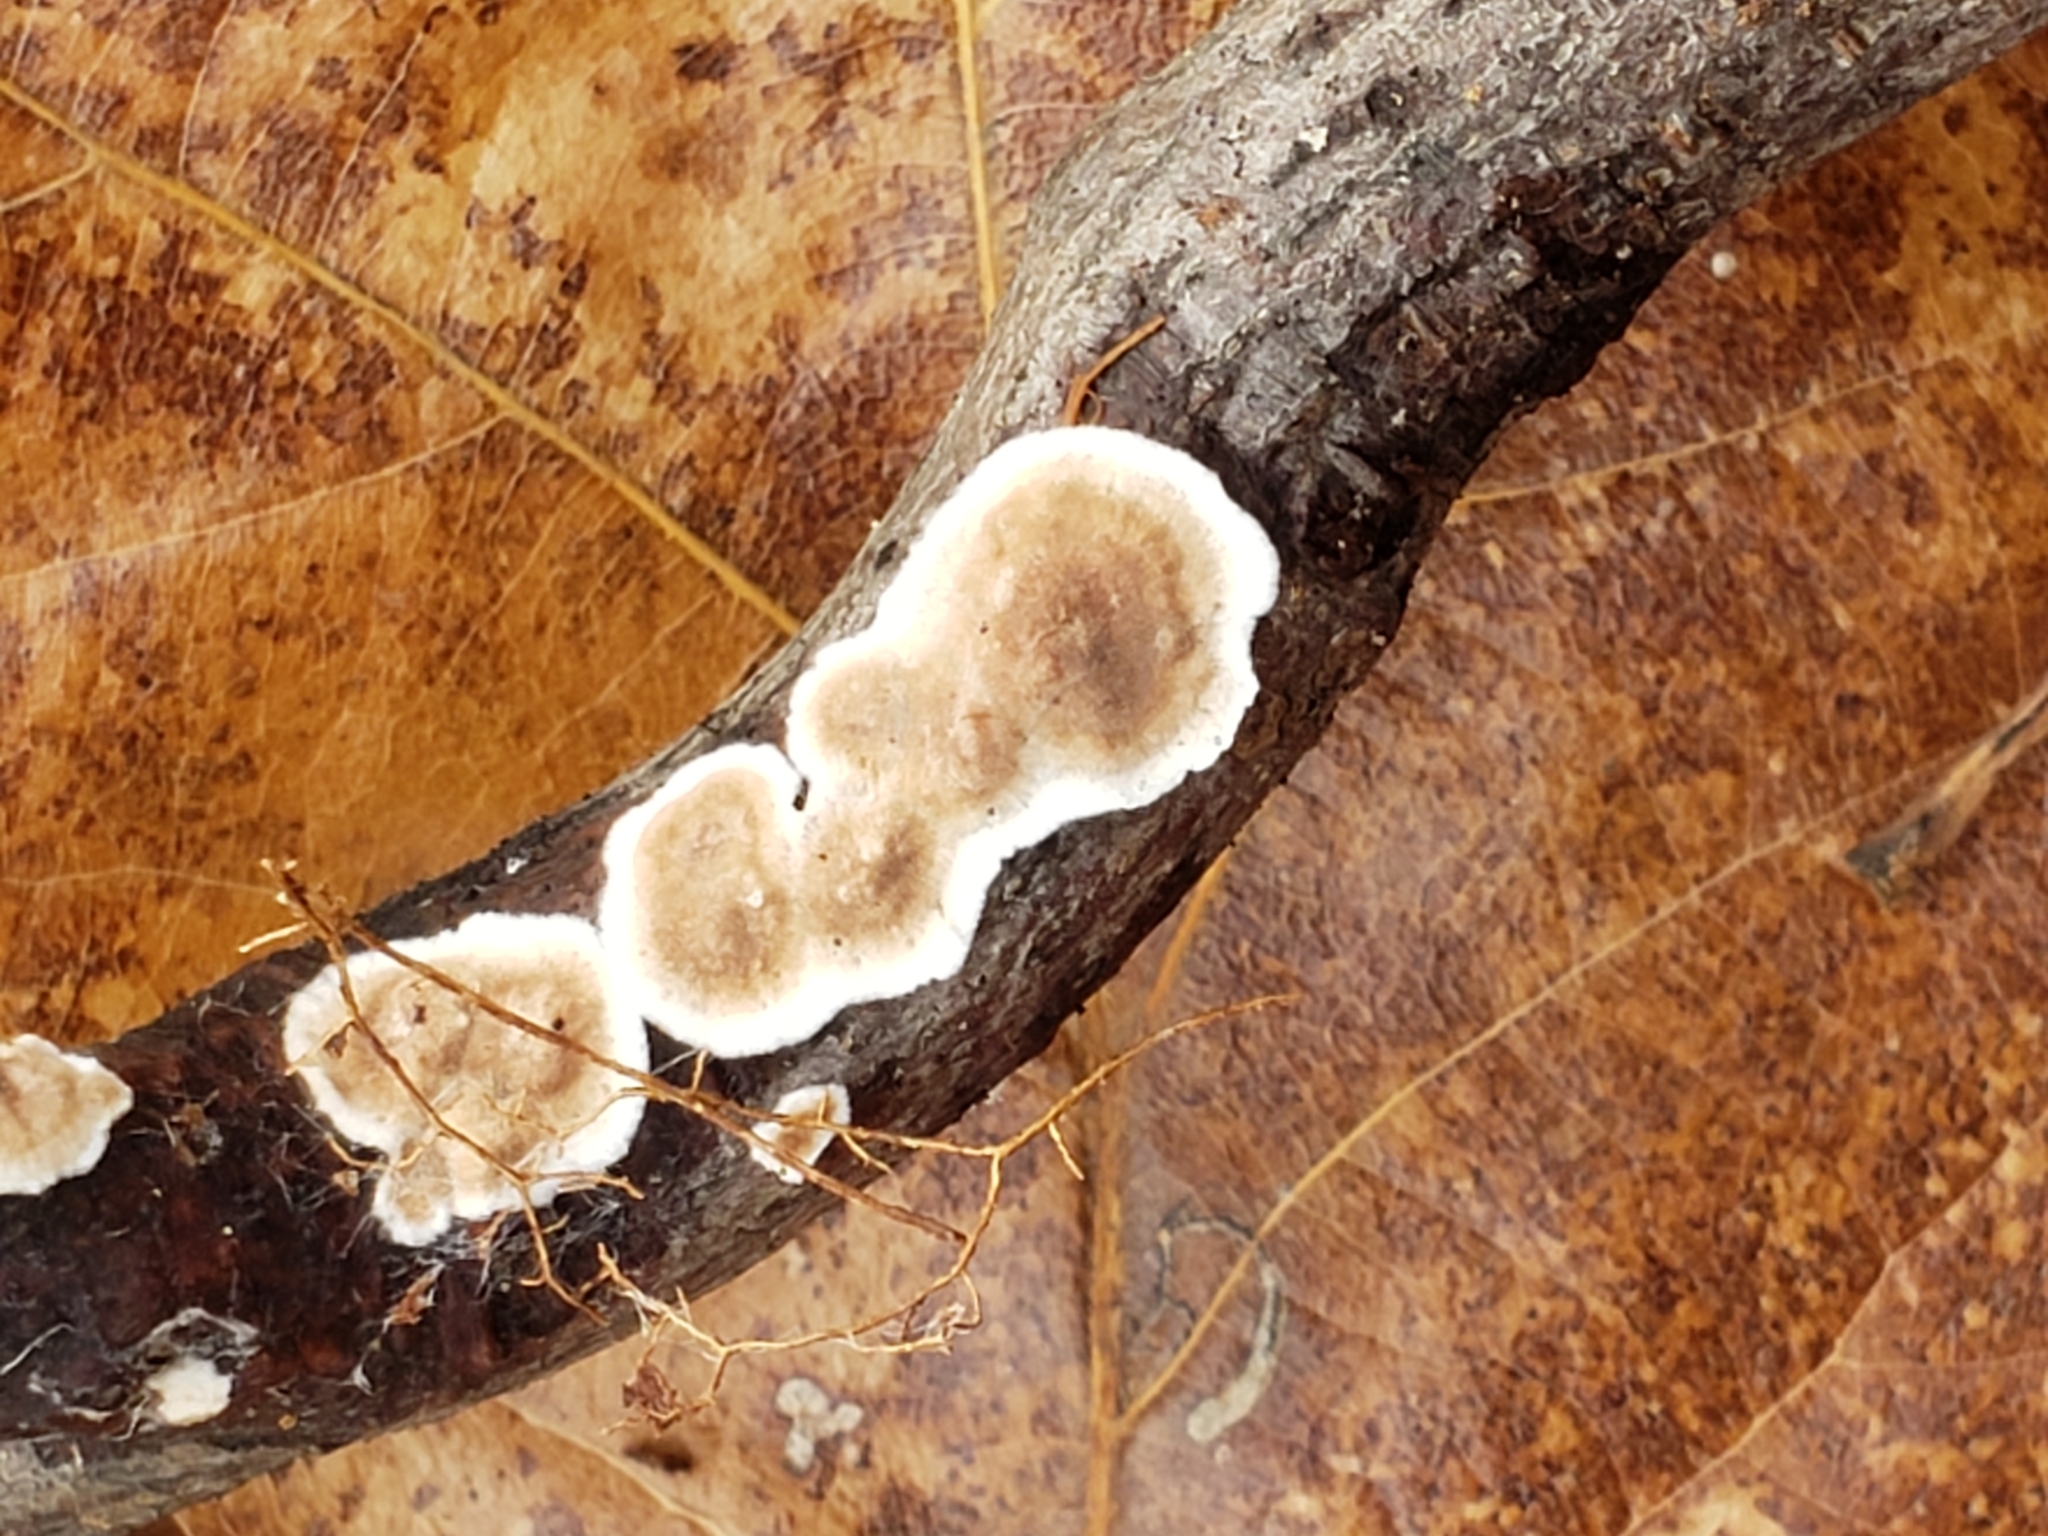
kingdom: Fungi
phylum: Basidiomycota
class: Agaricomycetes
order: Russulales
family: Peniophoraceae
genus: Peniophora
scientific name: Peniophora albobadia
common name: Giraffe spots
